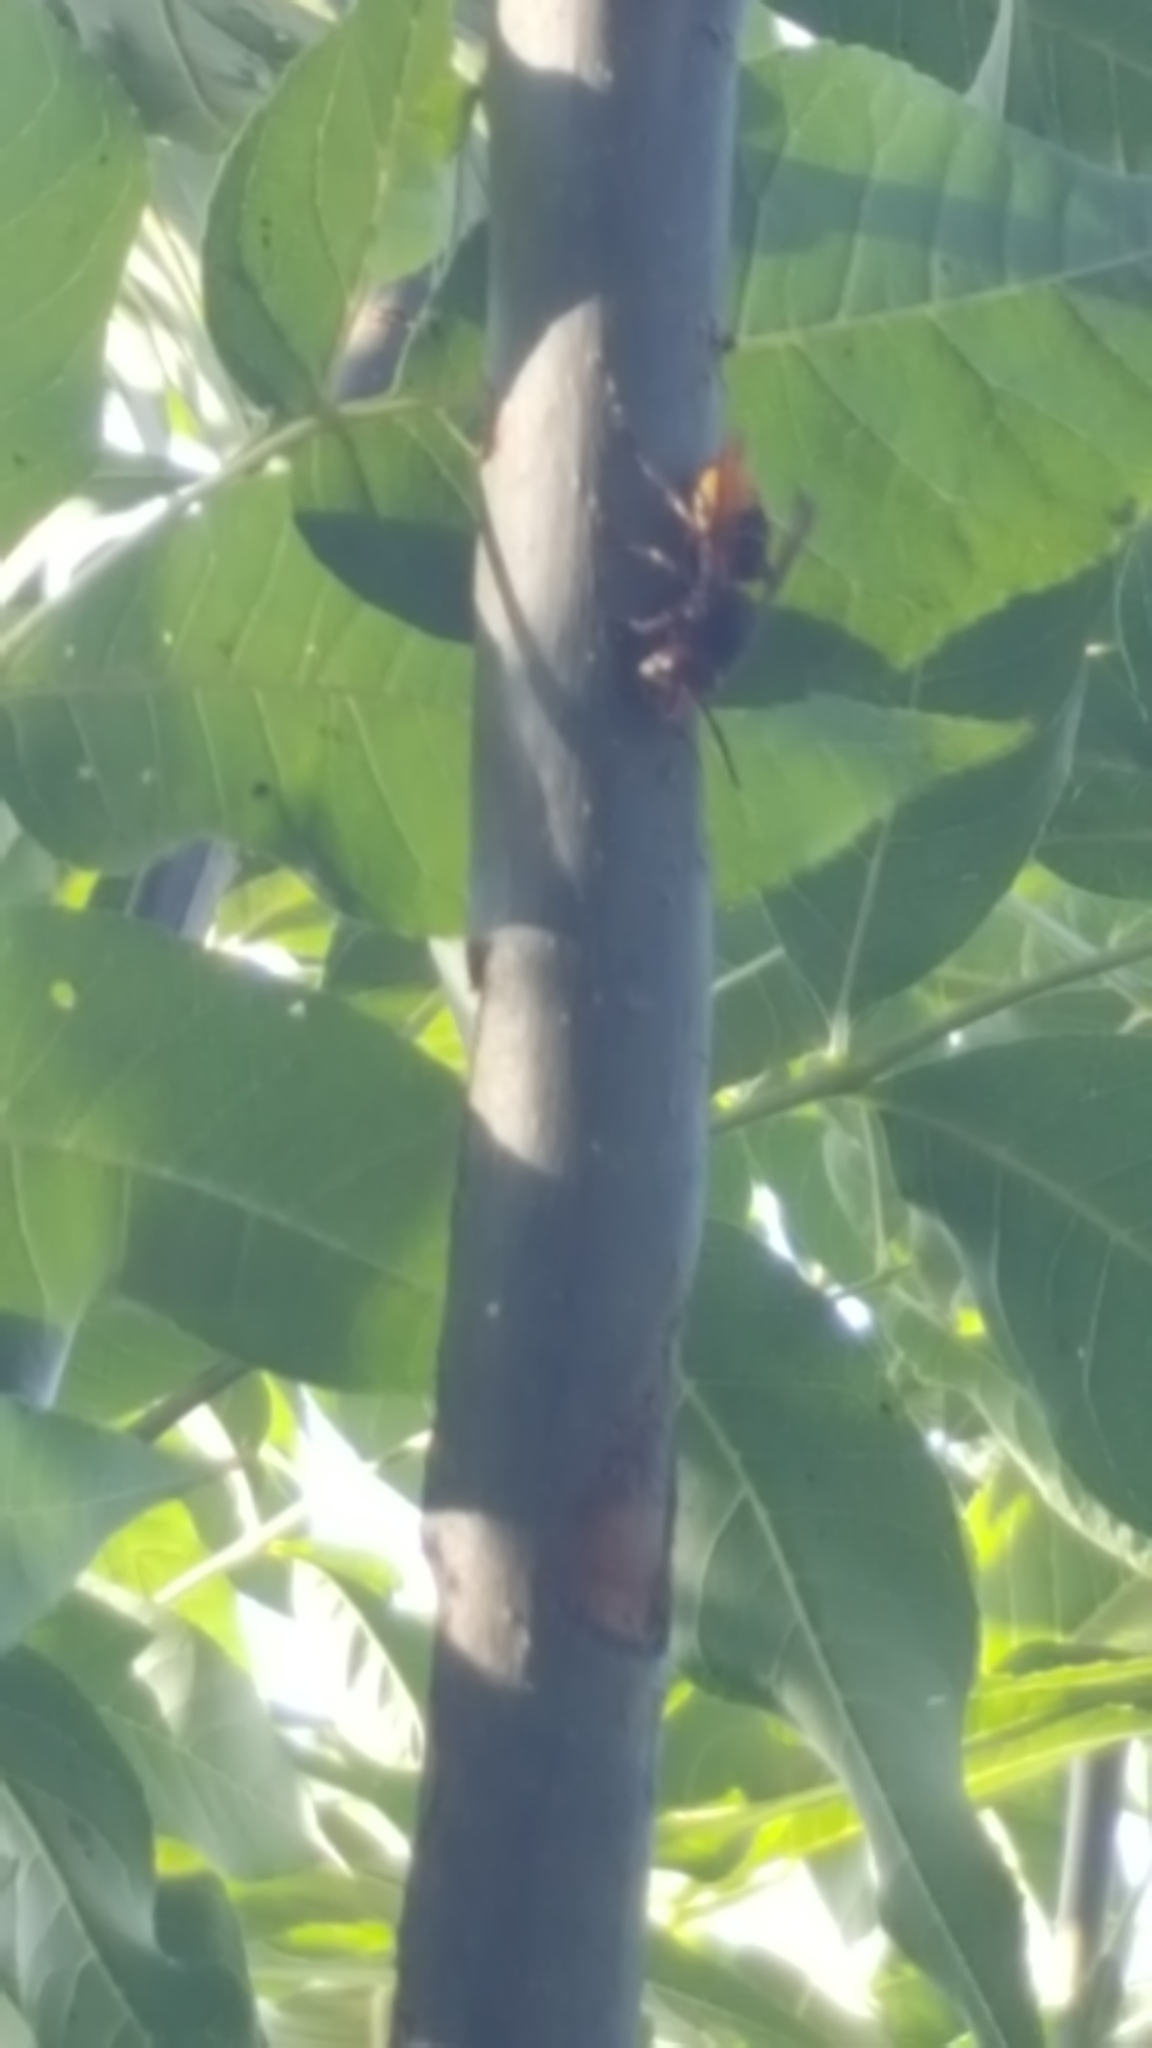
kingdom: Animalia
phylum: Arthropoda
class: Insecta
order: Hymenoptera
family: Vespidae
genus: Vespa
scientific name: Vespa crabro
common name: Hornet
